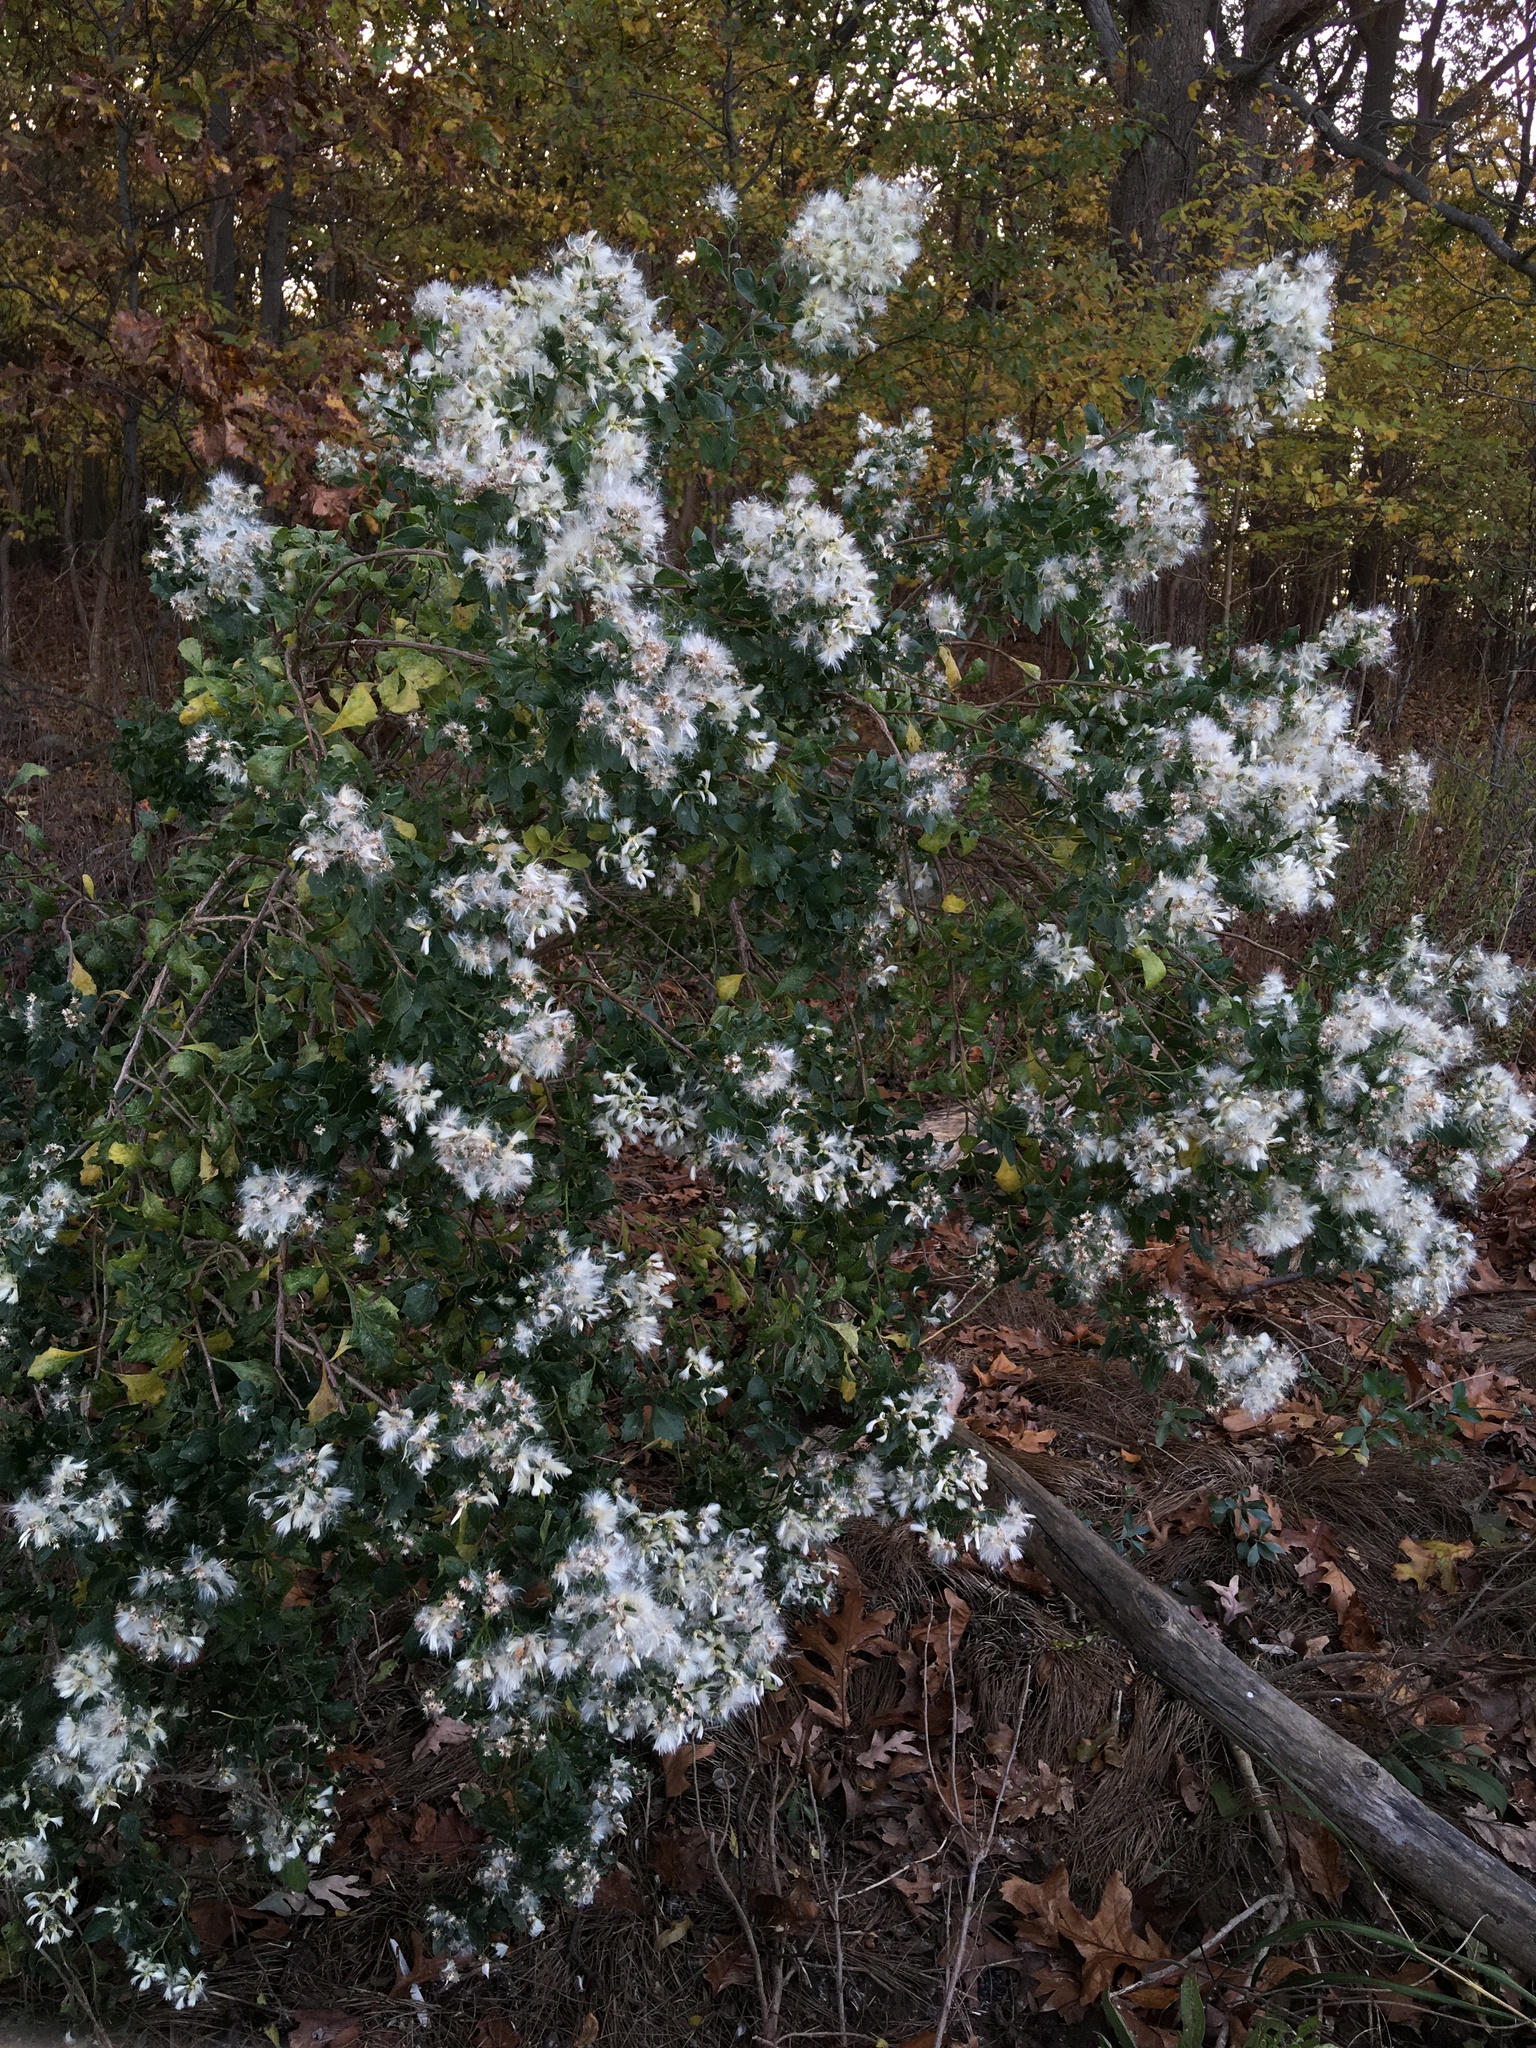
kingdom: Plantae
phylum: Tracheophyta
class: Magnoliopsida
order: Asterales
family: Asteraceae
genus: Baccharis
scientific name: Baccharis halimifolia
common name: Eastern baccharis
